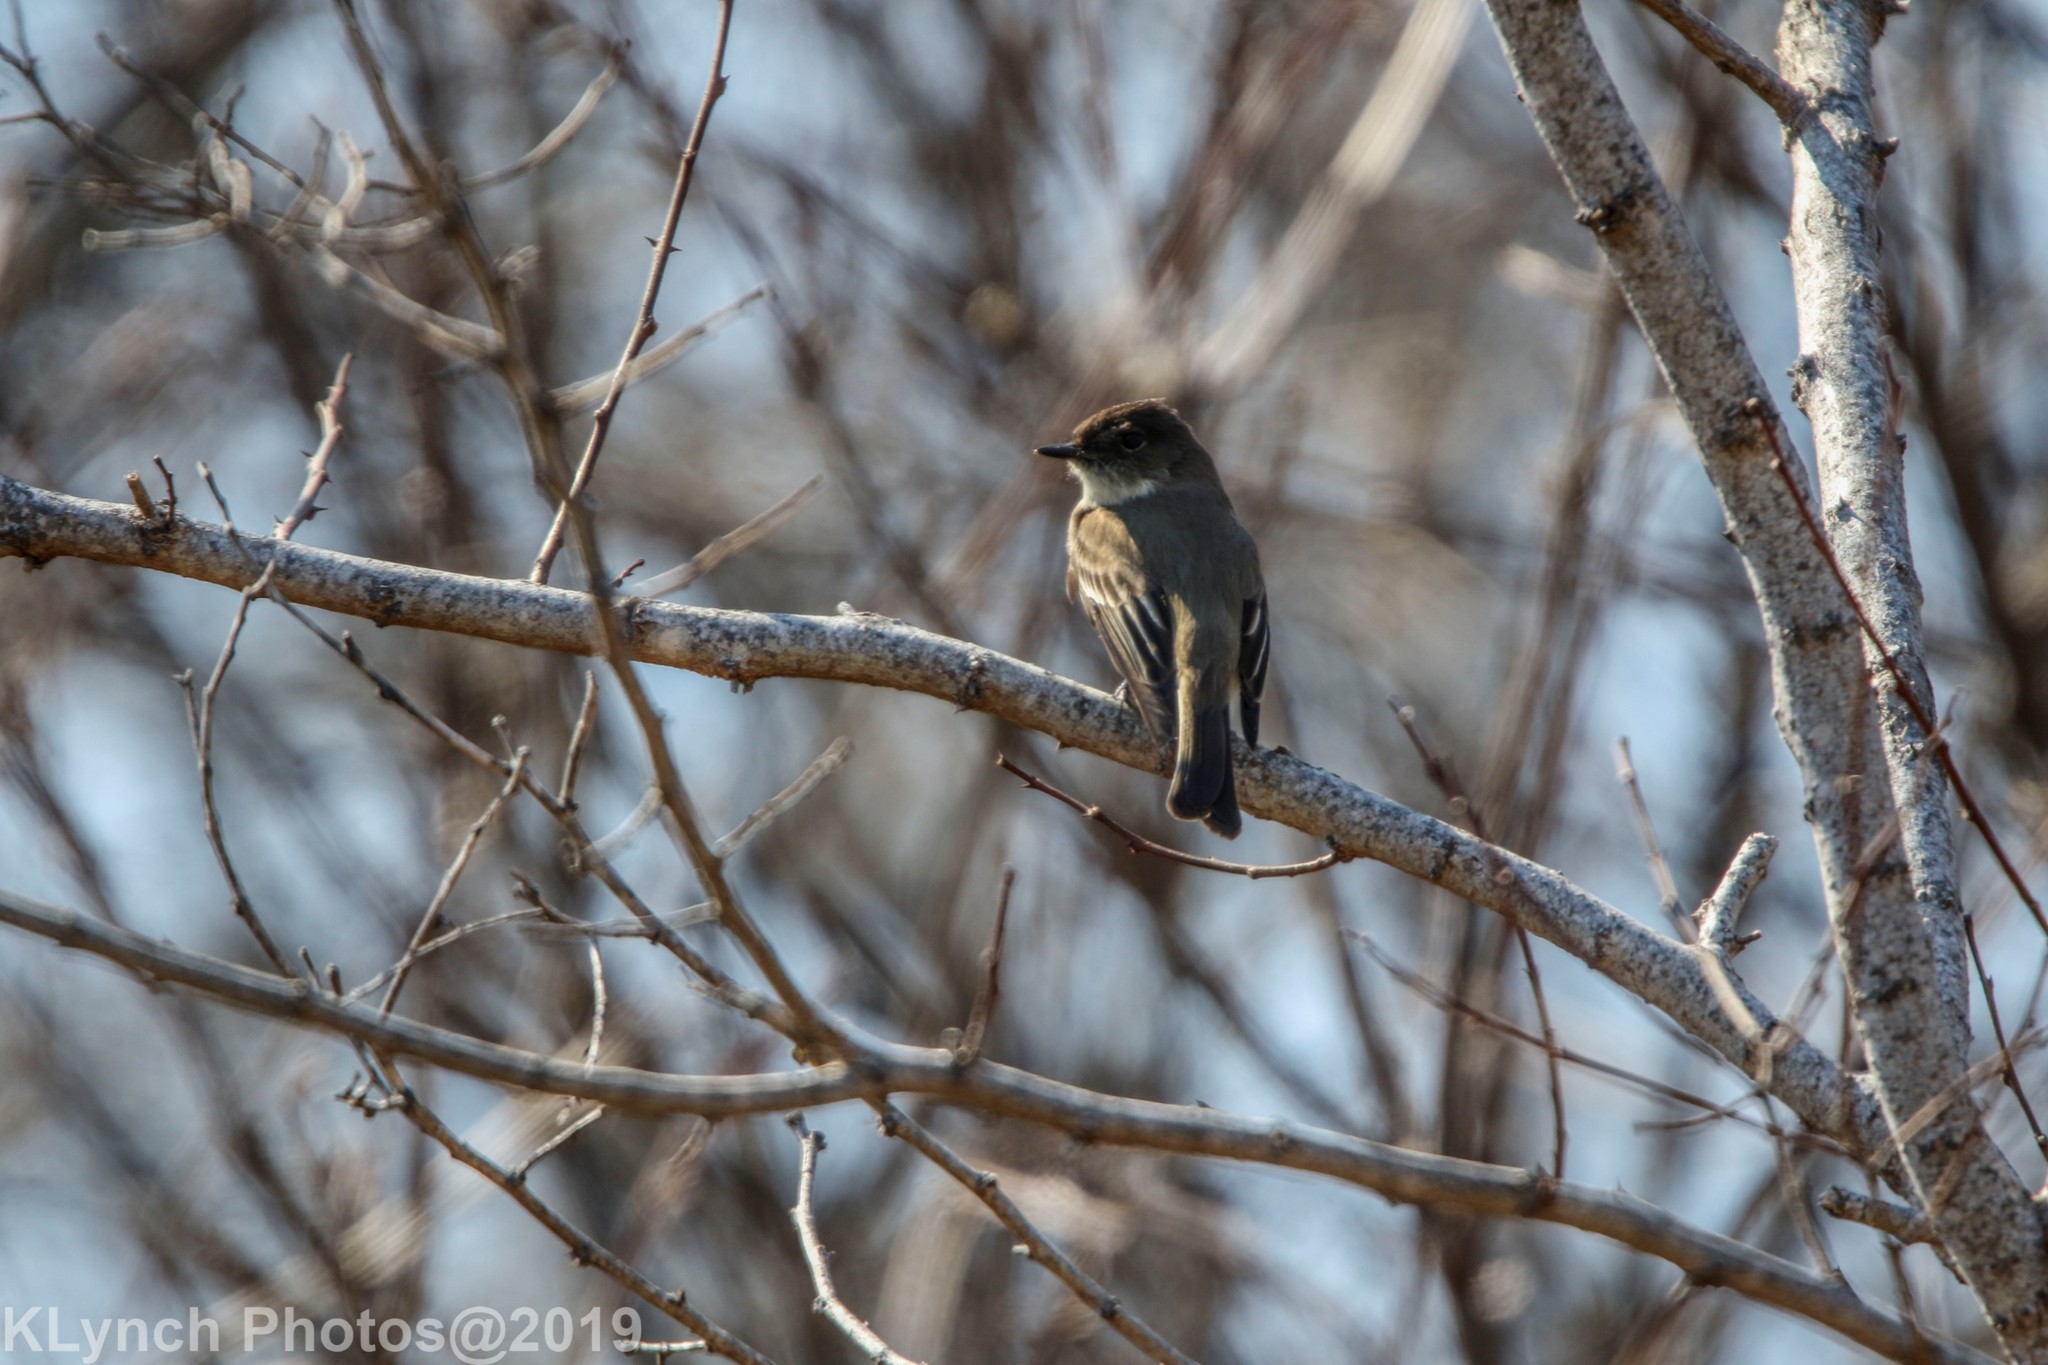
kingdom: Animalia
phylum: Chordata
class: Aves
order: Passeriformes
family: Tyrannidae
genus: Sayornis
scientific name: Sayornis phoebe
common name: Eastern phoebe
